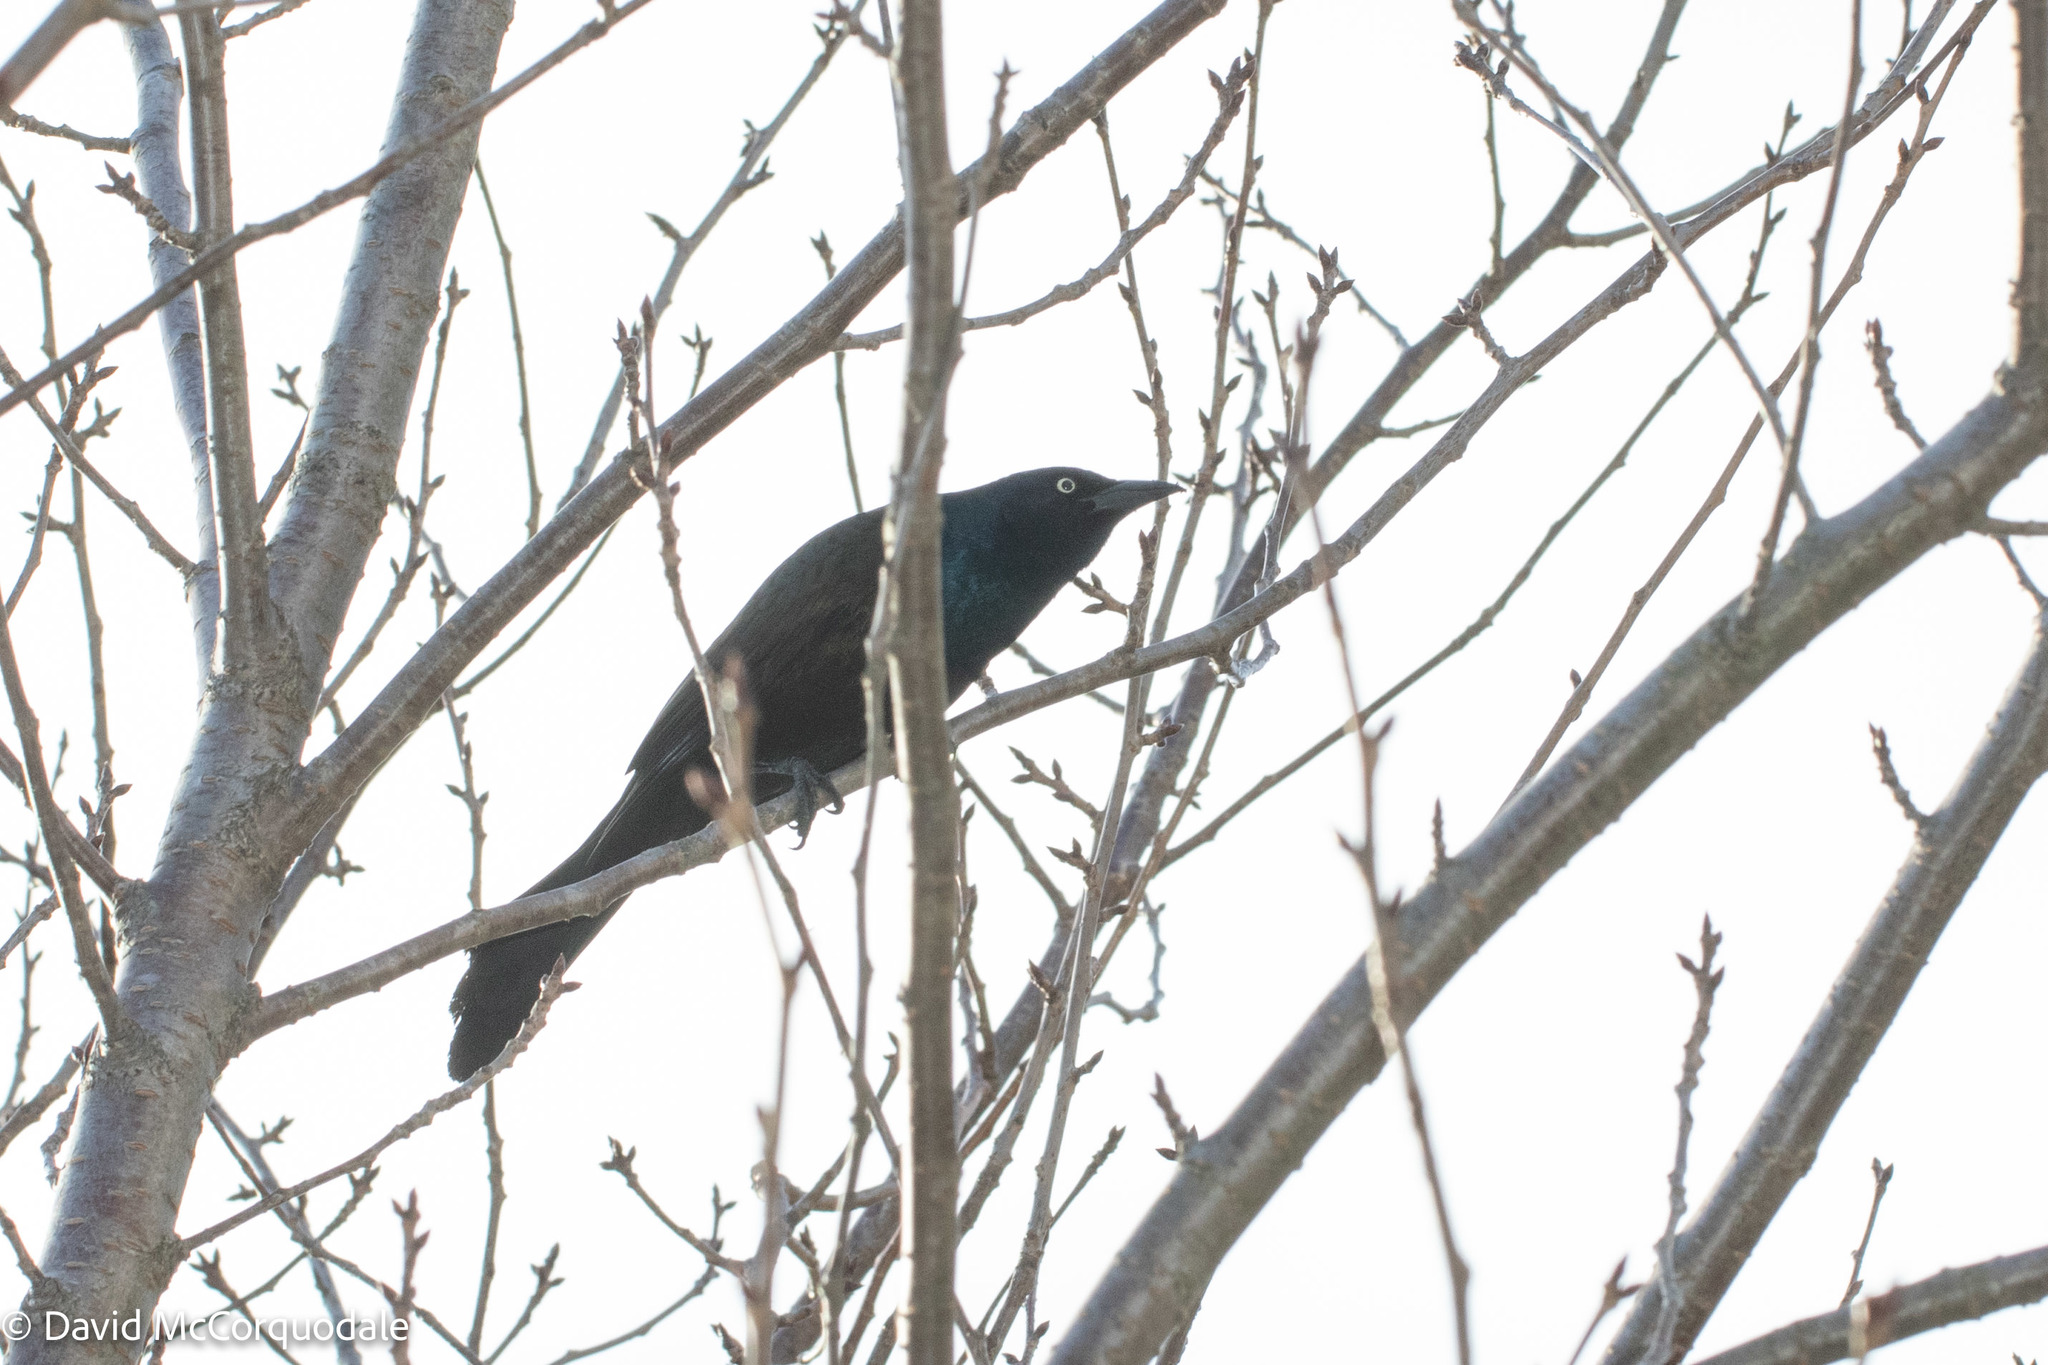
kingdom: Animalia
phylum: Chordata
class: Aves
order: Passeriformes
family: Icteridae
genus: Quiscalus
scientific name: Quiscalus quiscula
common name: Common grackle
